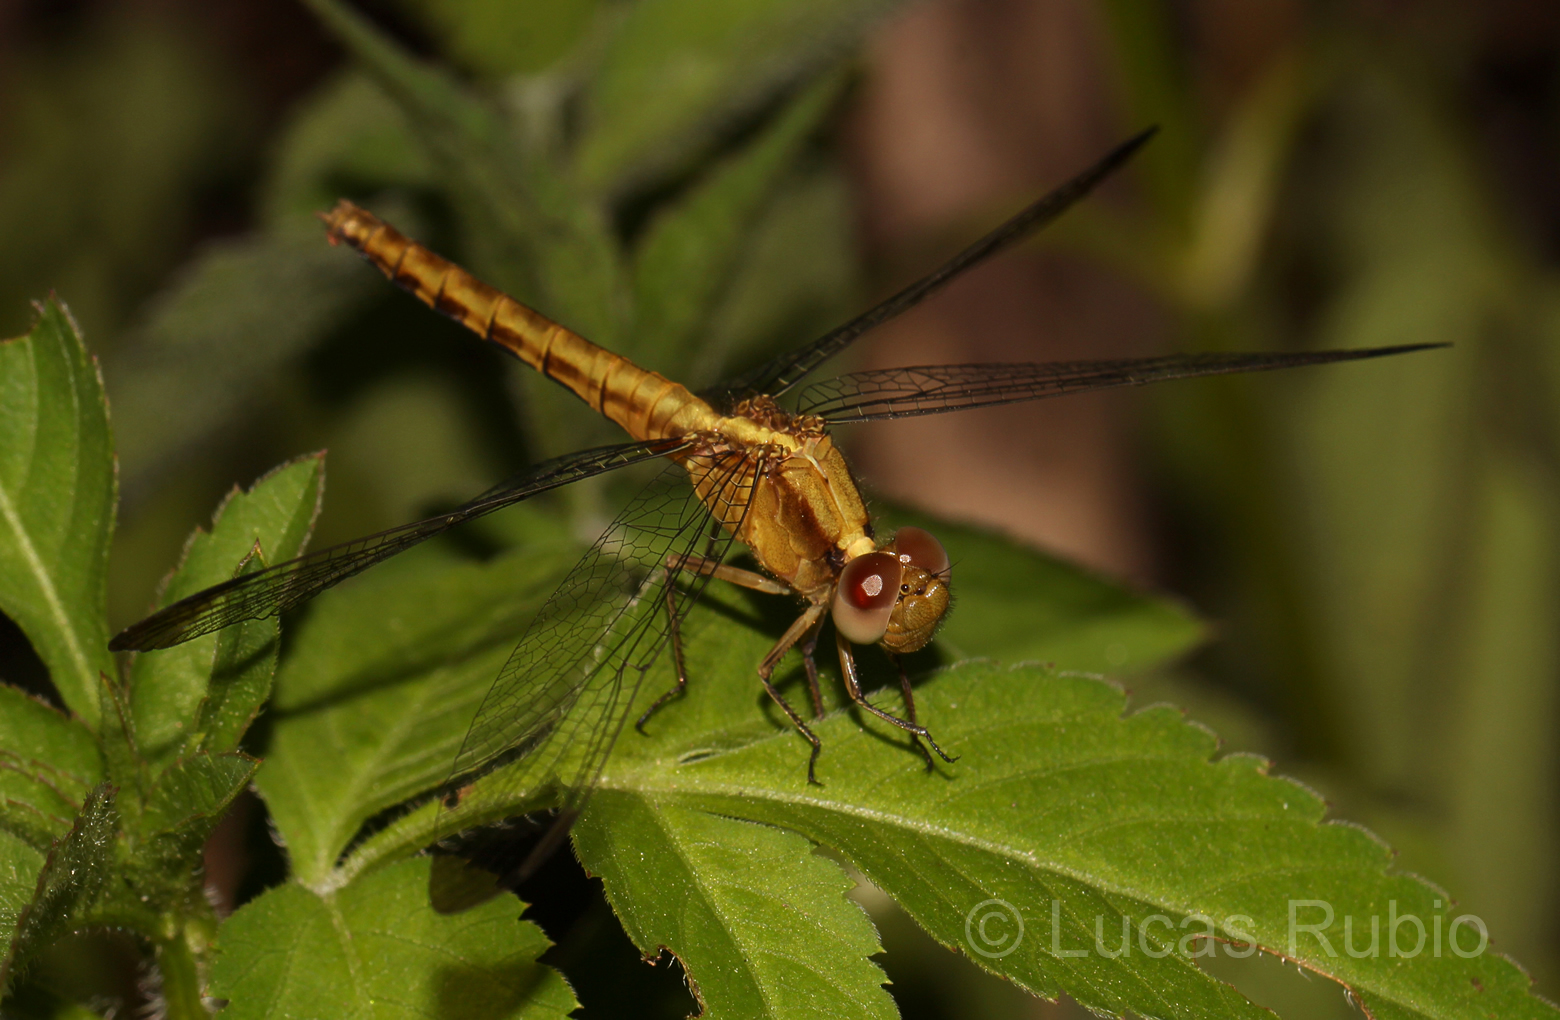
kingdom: Animalia
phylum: Arthropoda
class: Insecta
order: Odonata
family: Libellulidae
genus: Erythrodiplax
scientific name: Erythrodiplax atroterminata
